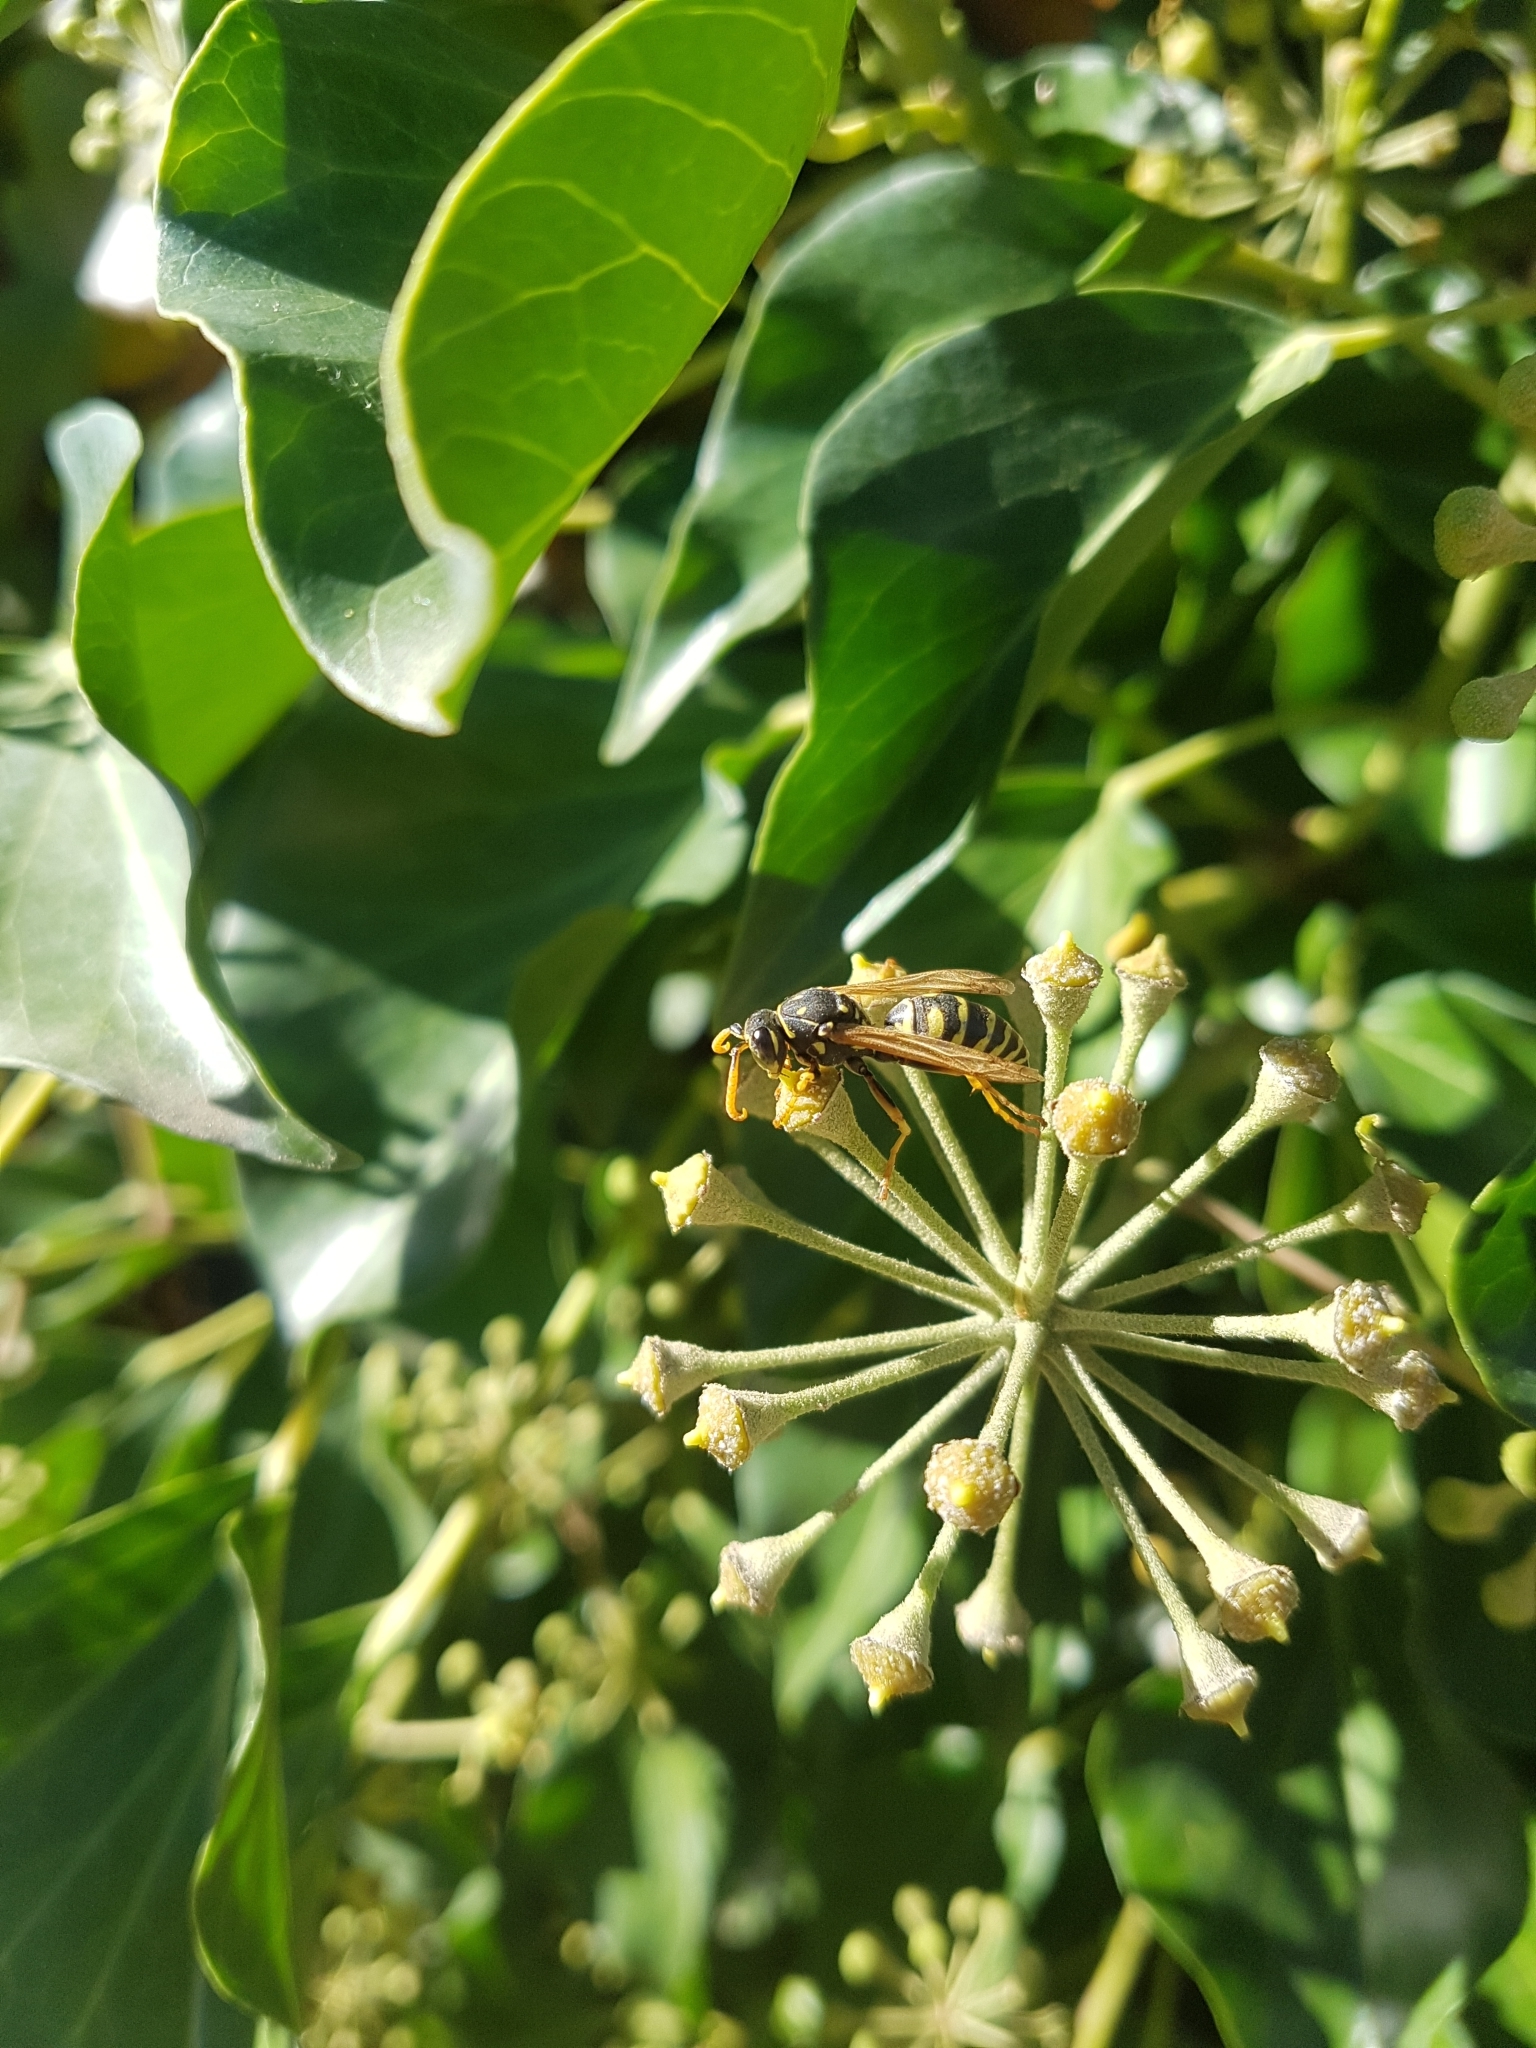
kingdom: Animalia
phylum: Arthropoda
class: Insecta
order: Hymenoptera
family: Eumenidae
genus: Polistes
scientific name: Polistes dominula
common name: Paper wasp
